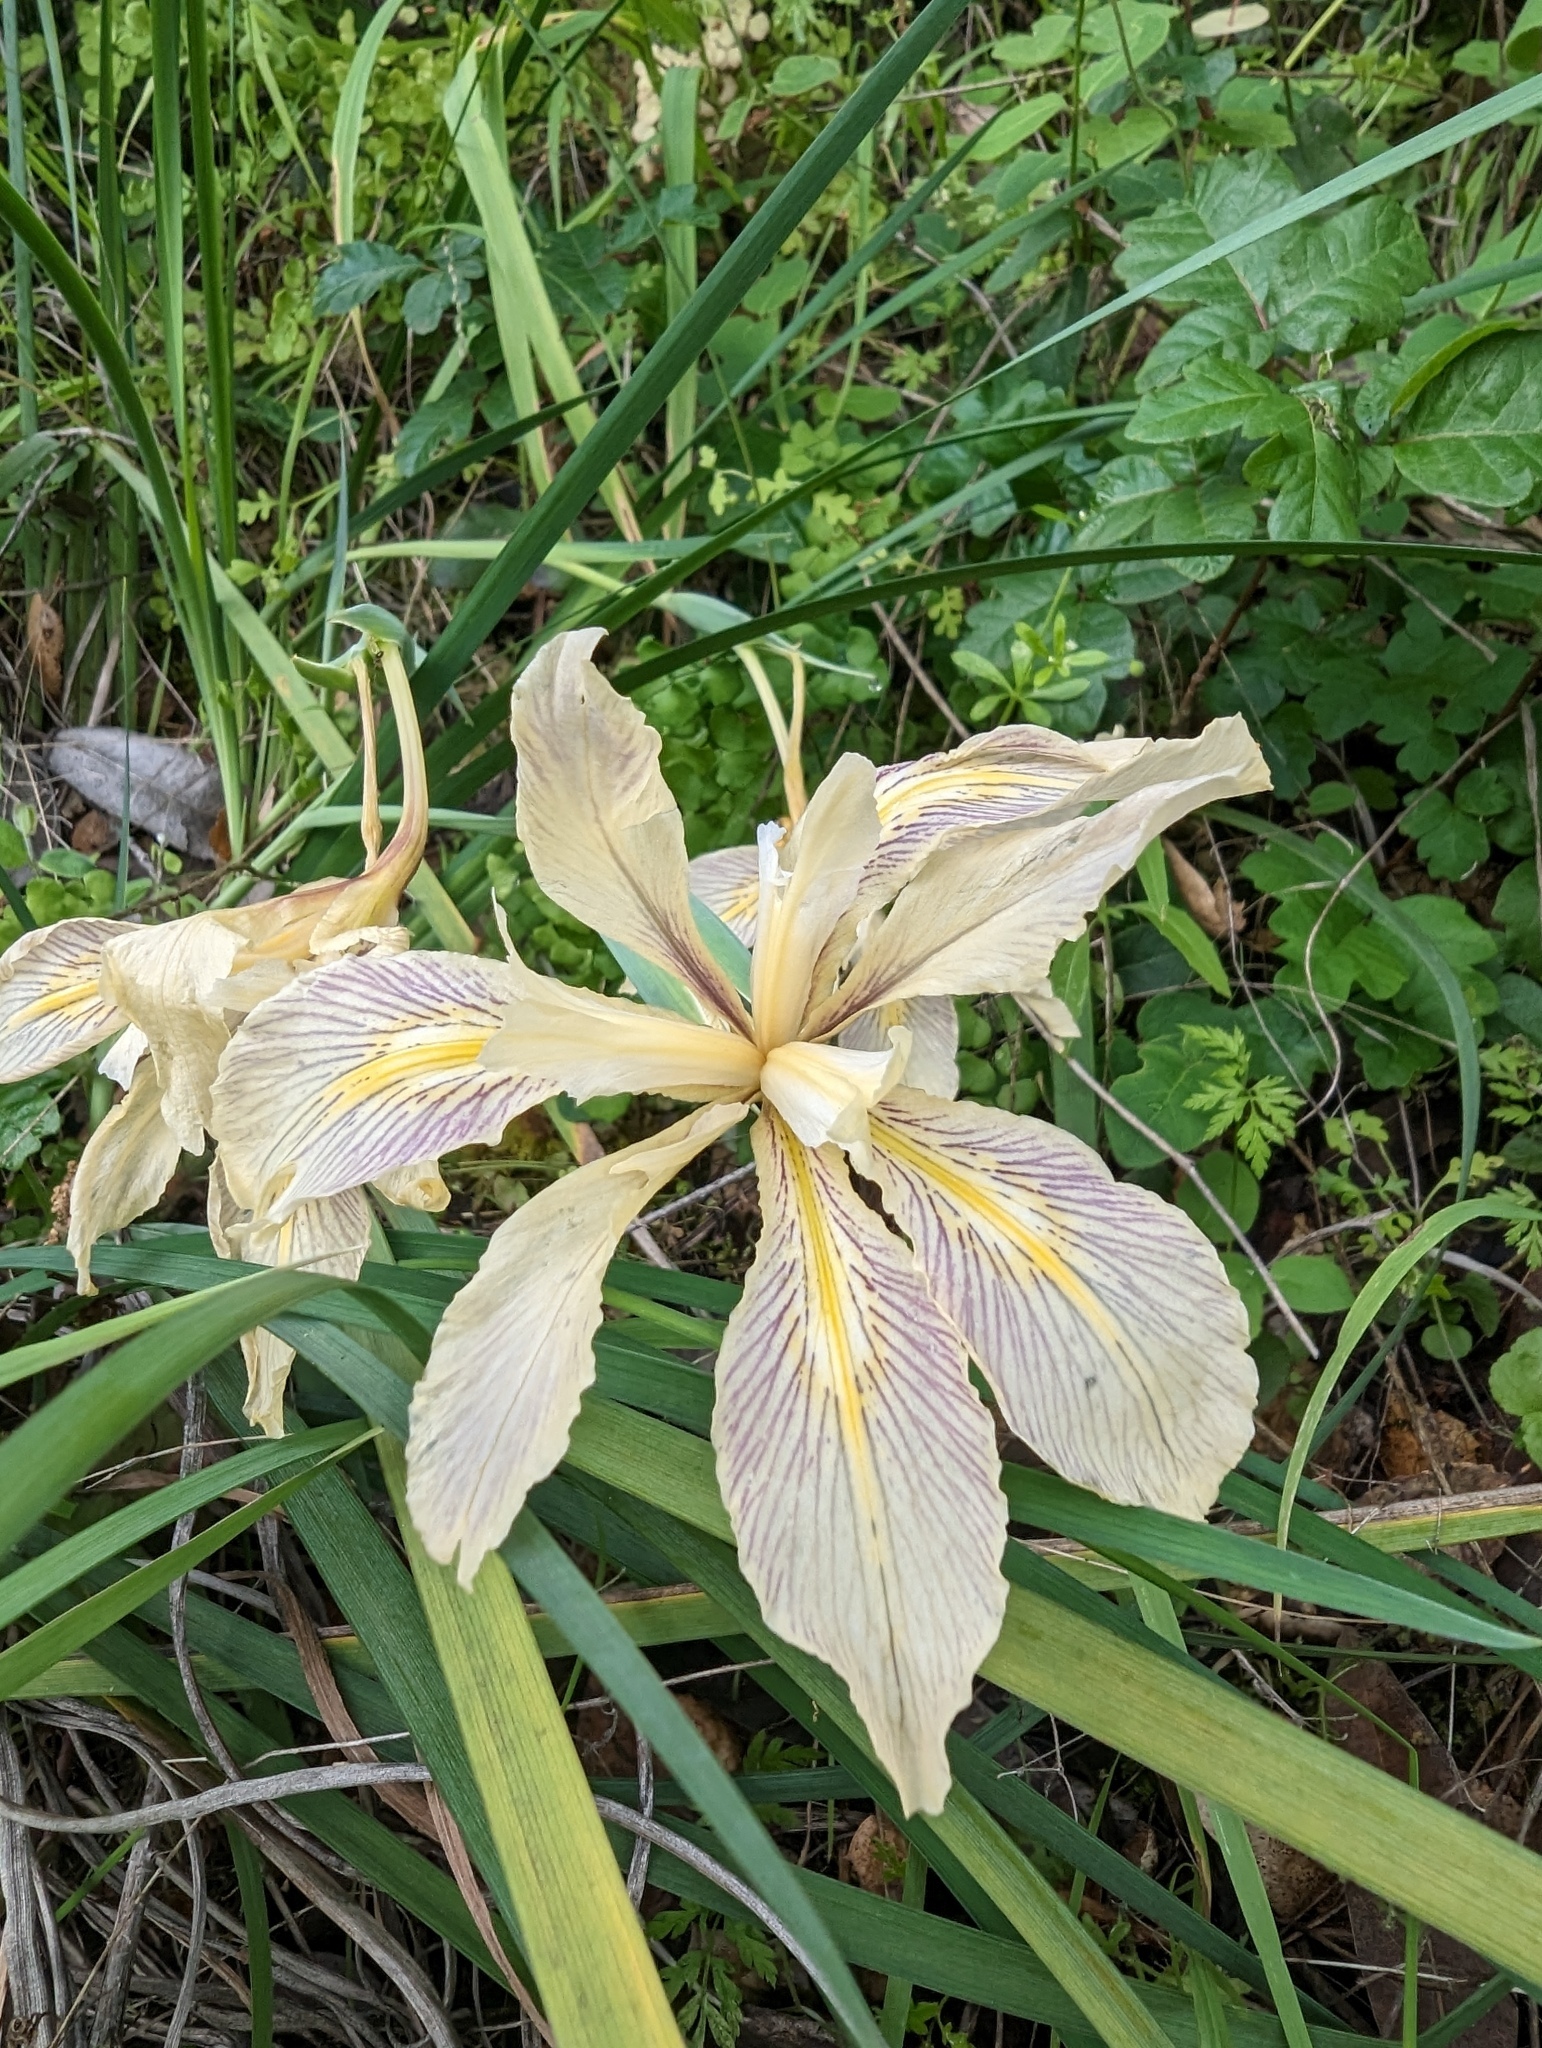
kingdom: Plantae
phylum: Tracheophyta
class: Liliopsida
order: Asparagales
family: Iridaceae
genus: Iris
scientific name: Iris fernaldii
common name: Fernald's iris
